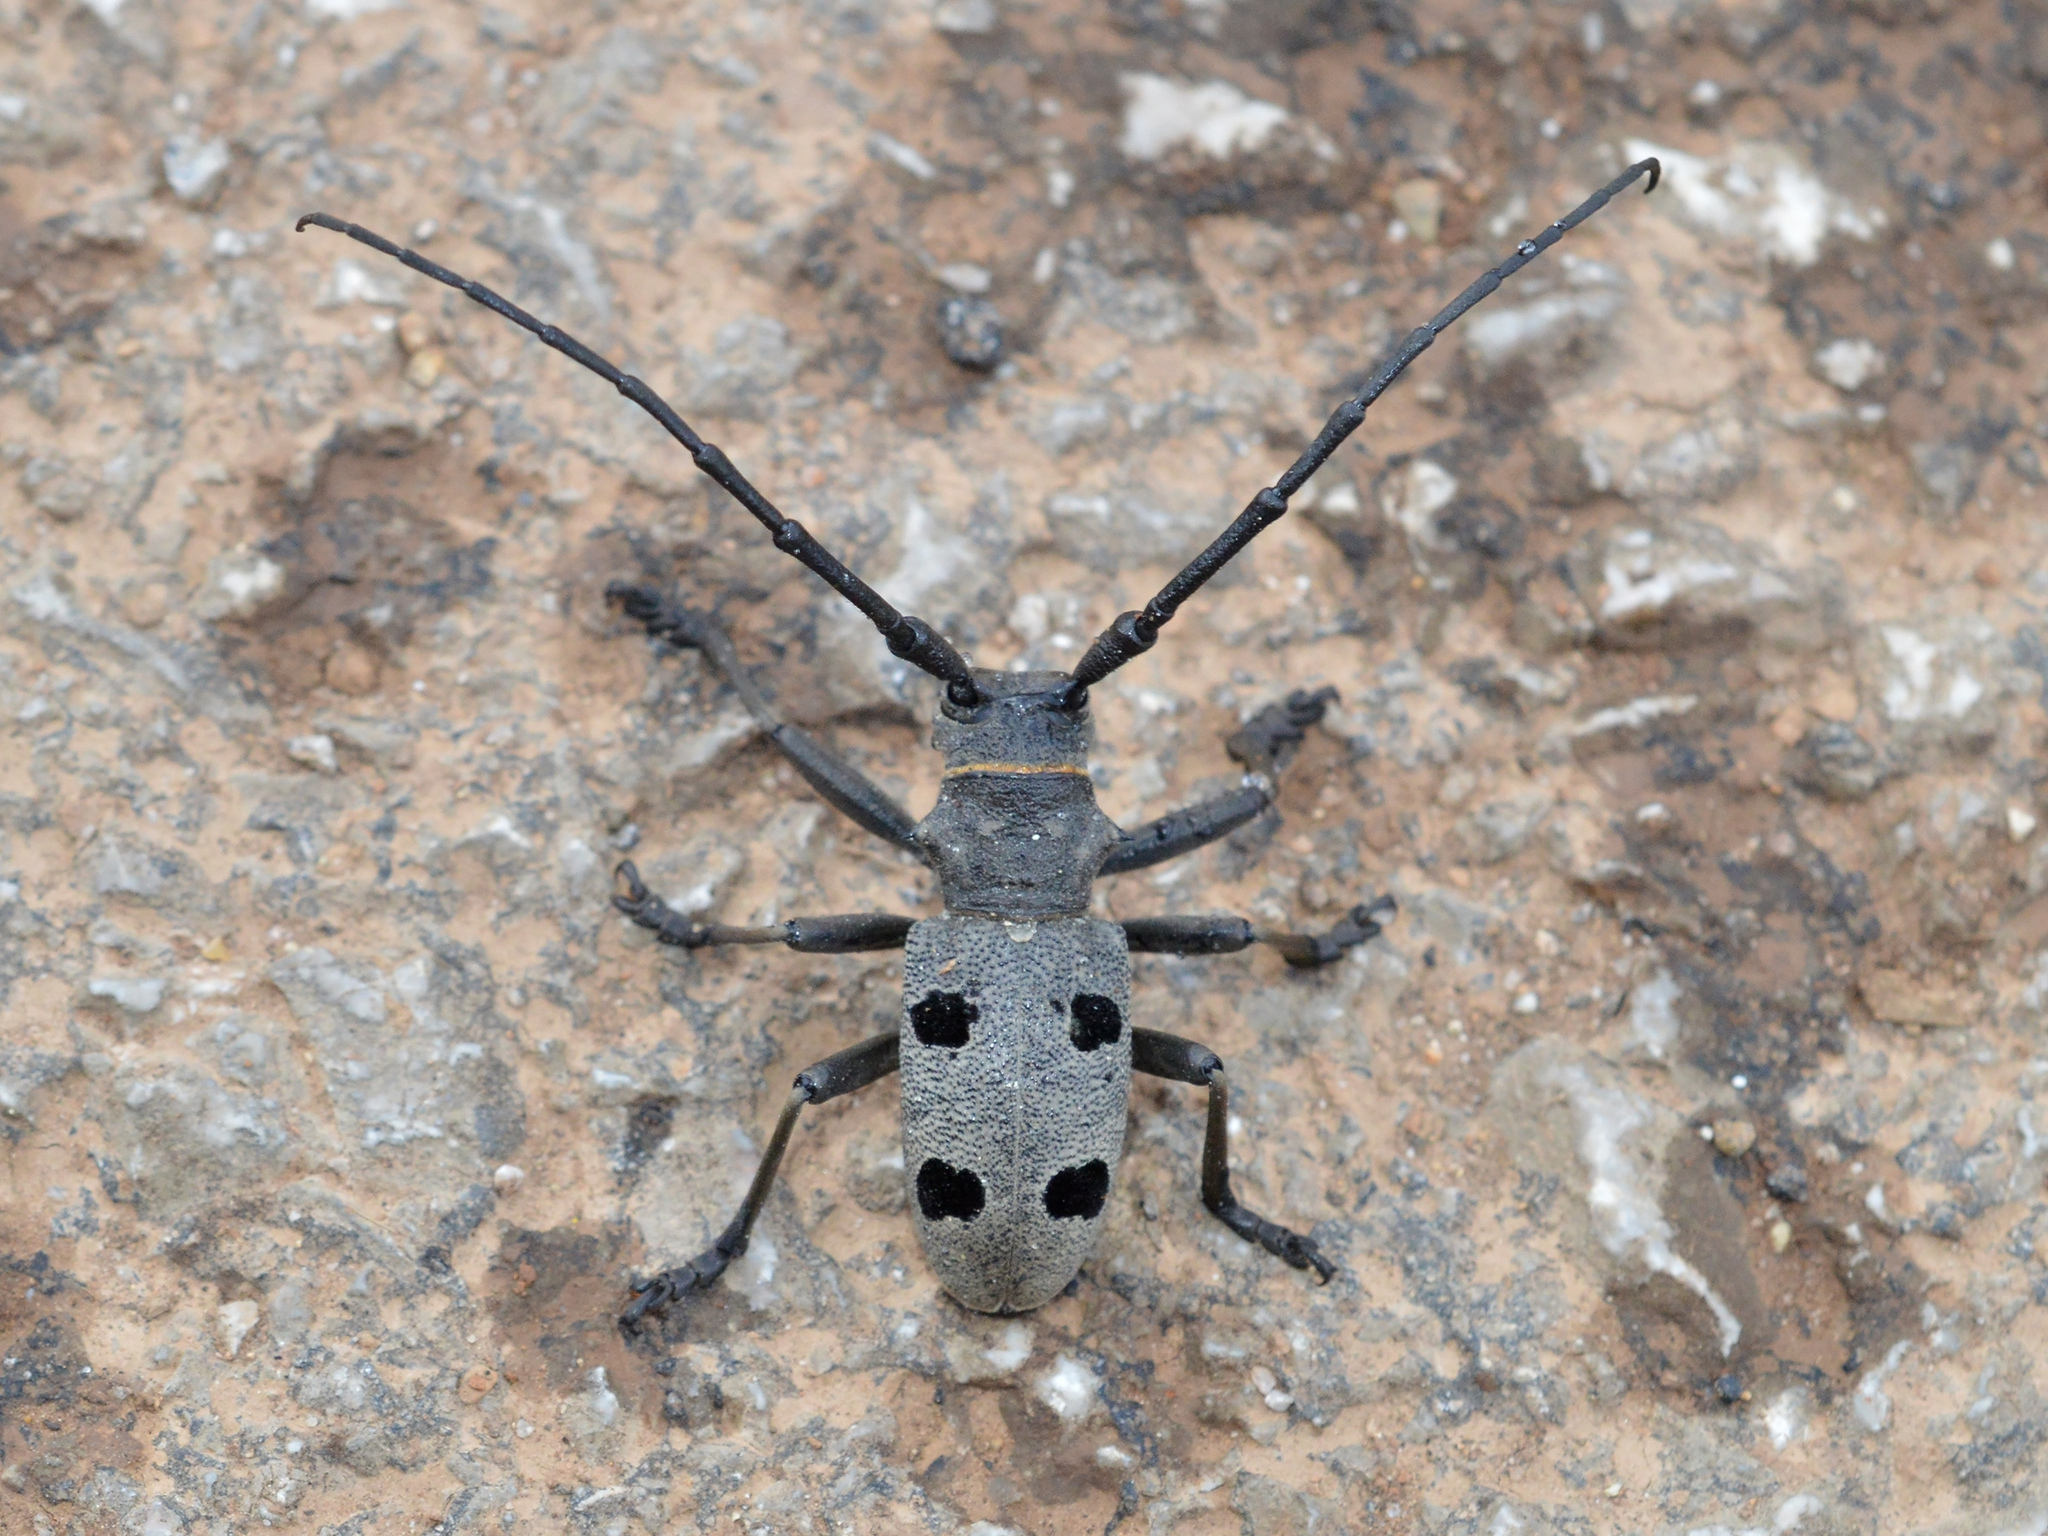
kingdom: Animalia
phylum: Arthropoda
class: Insecta
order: Coleoptera
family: Cerambycidae
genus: Morimus
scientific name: Morimus funereus
